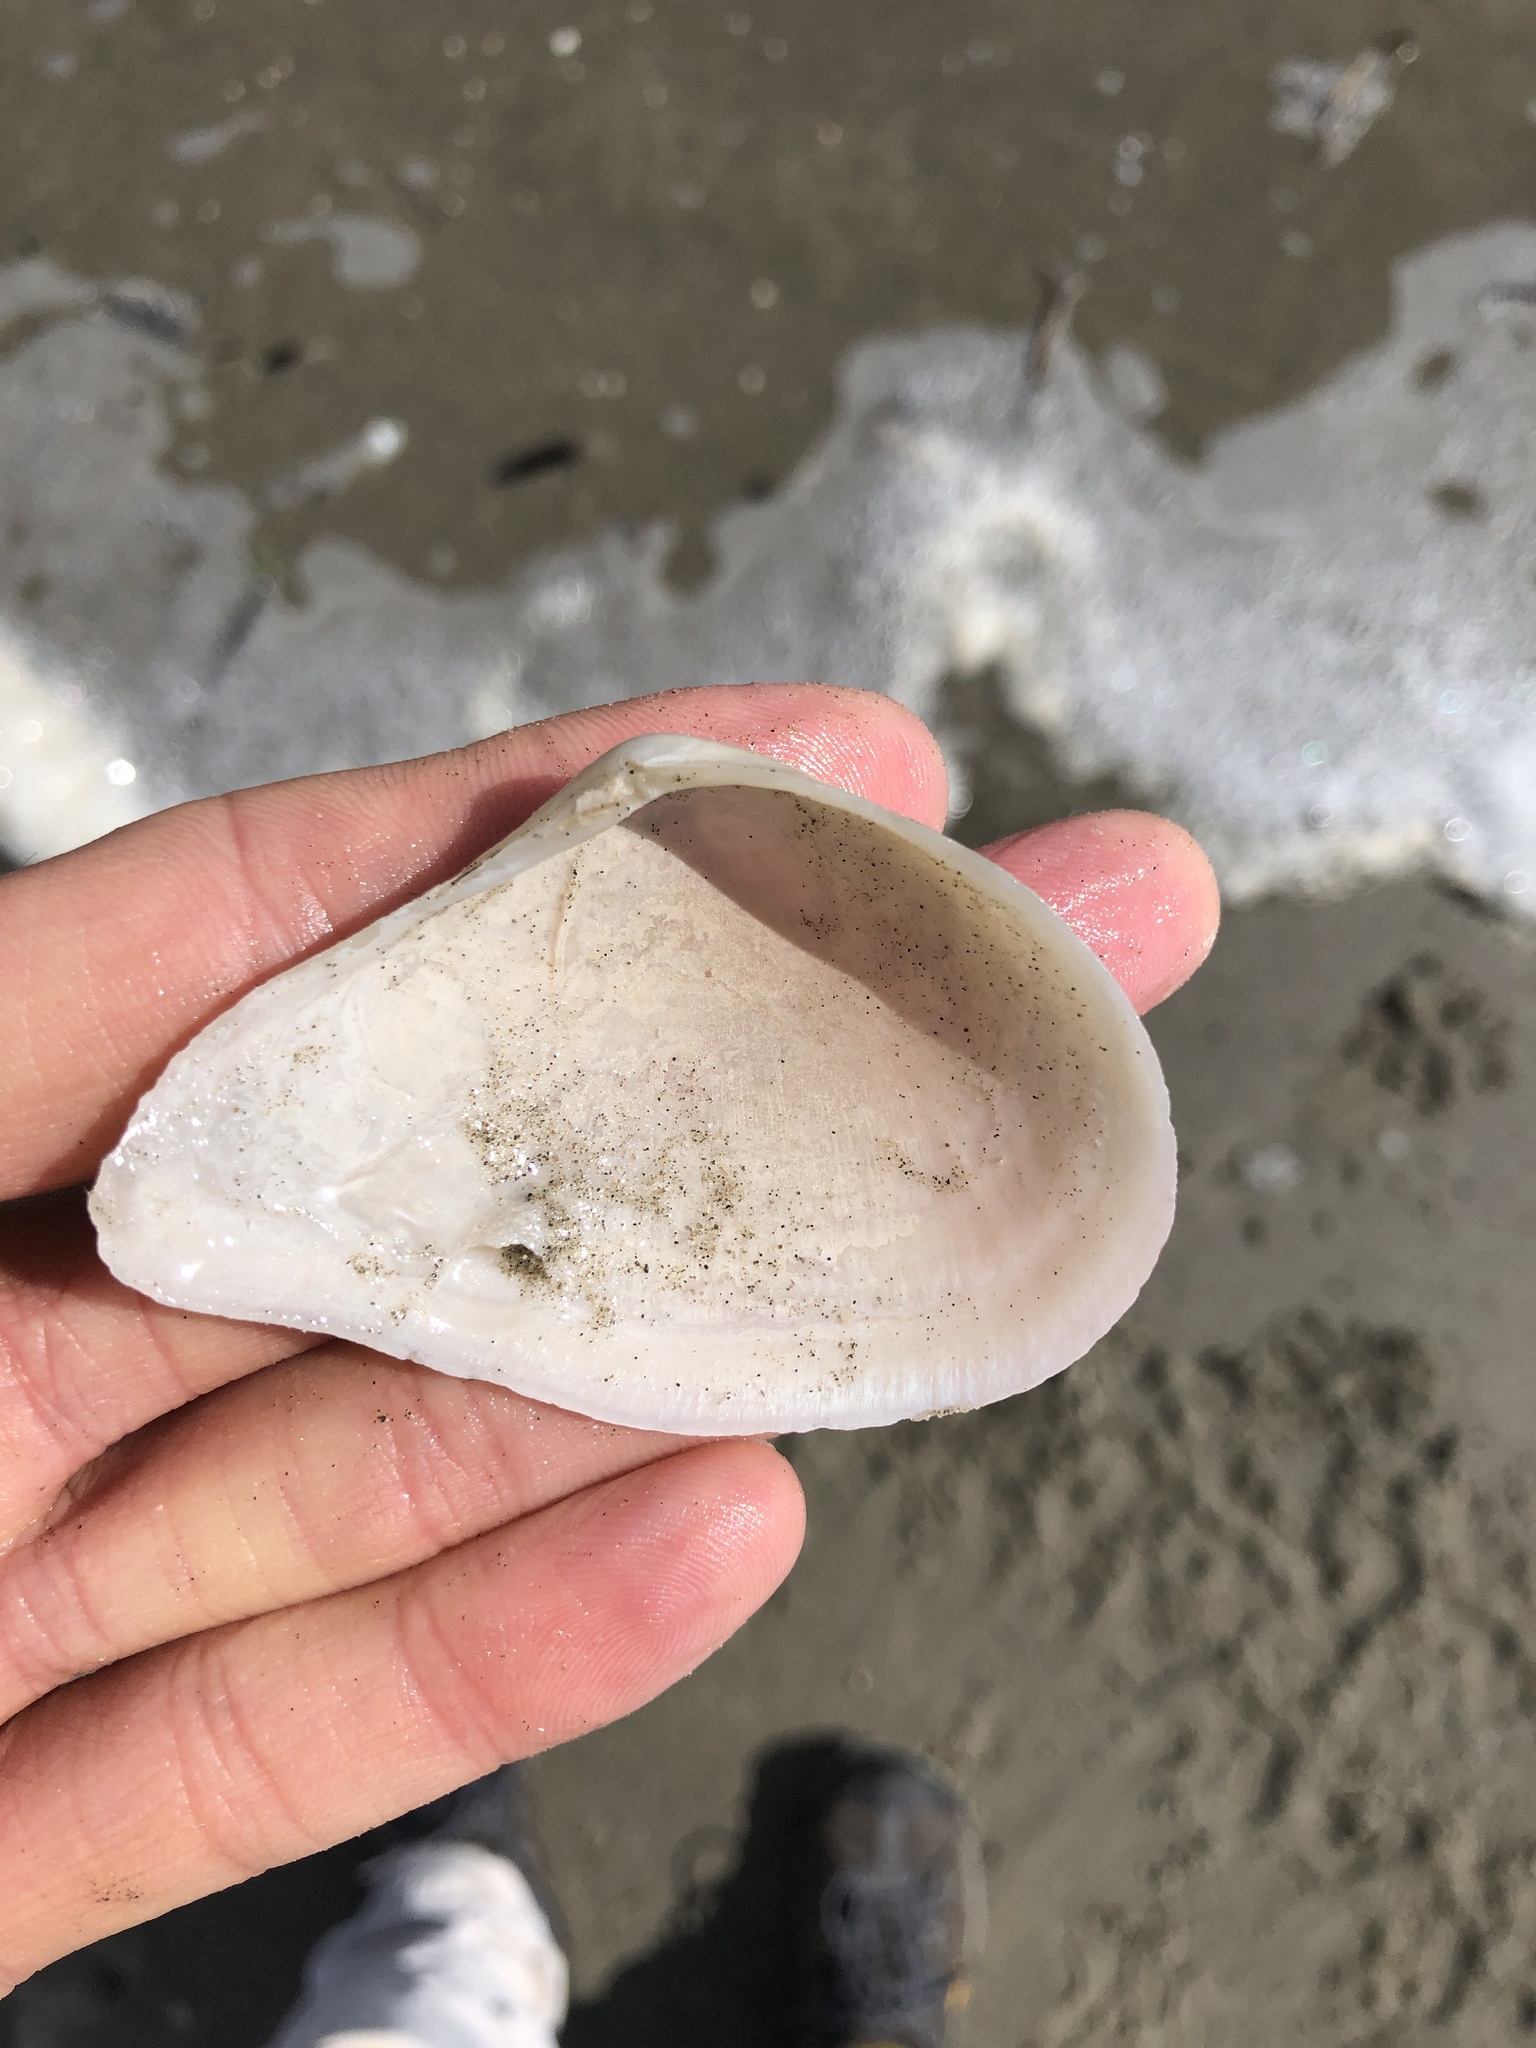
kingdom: Animalia
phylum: Mollusca
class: Bivalvia
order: Cardiida
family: Tellinidae
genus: Austromacoma
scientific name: Austromacoma constricta
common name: Constricted macoma
